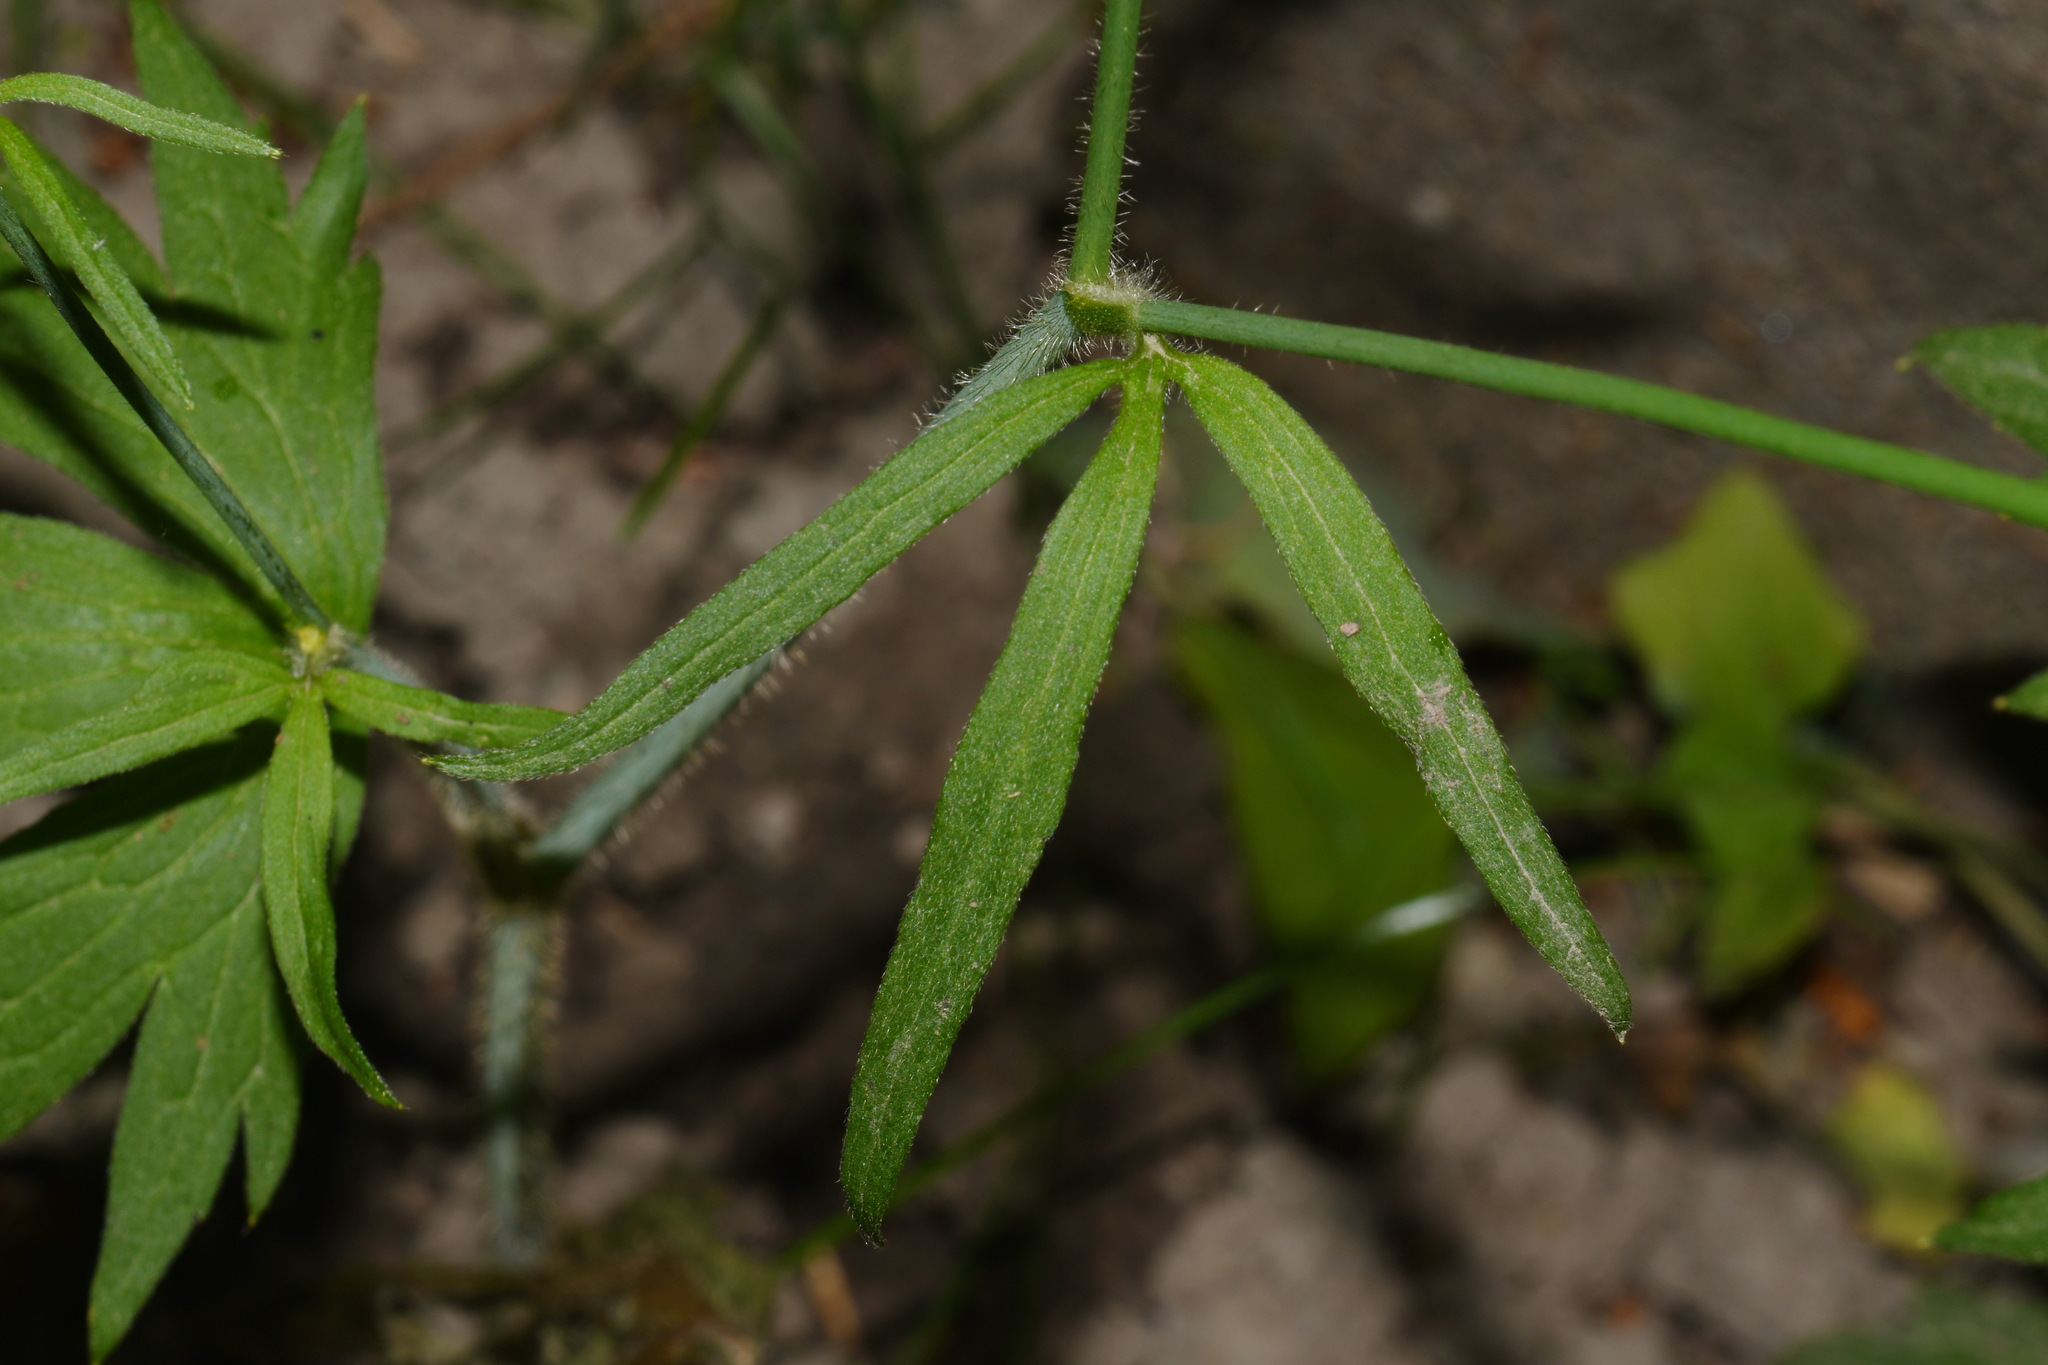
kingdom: Plantae
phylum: Tracheophyta
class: Magnoliopsida
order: Ranunculales
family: Ranunculaceae
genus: Ranunculus
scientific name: Ranunculus uncinatus
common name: Little buttercup
